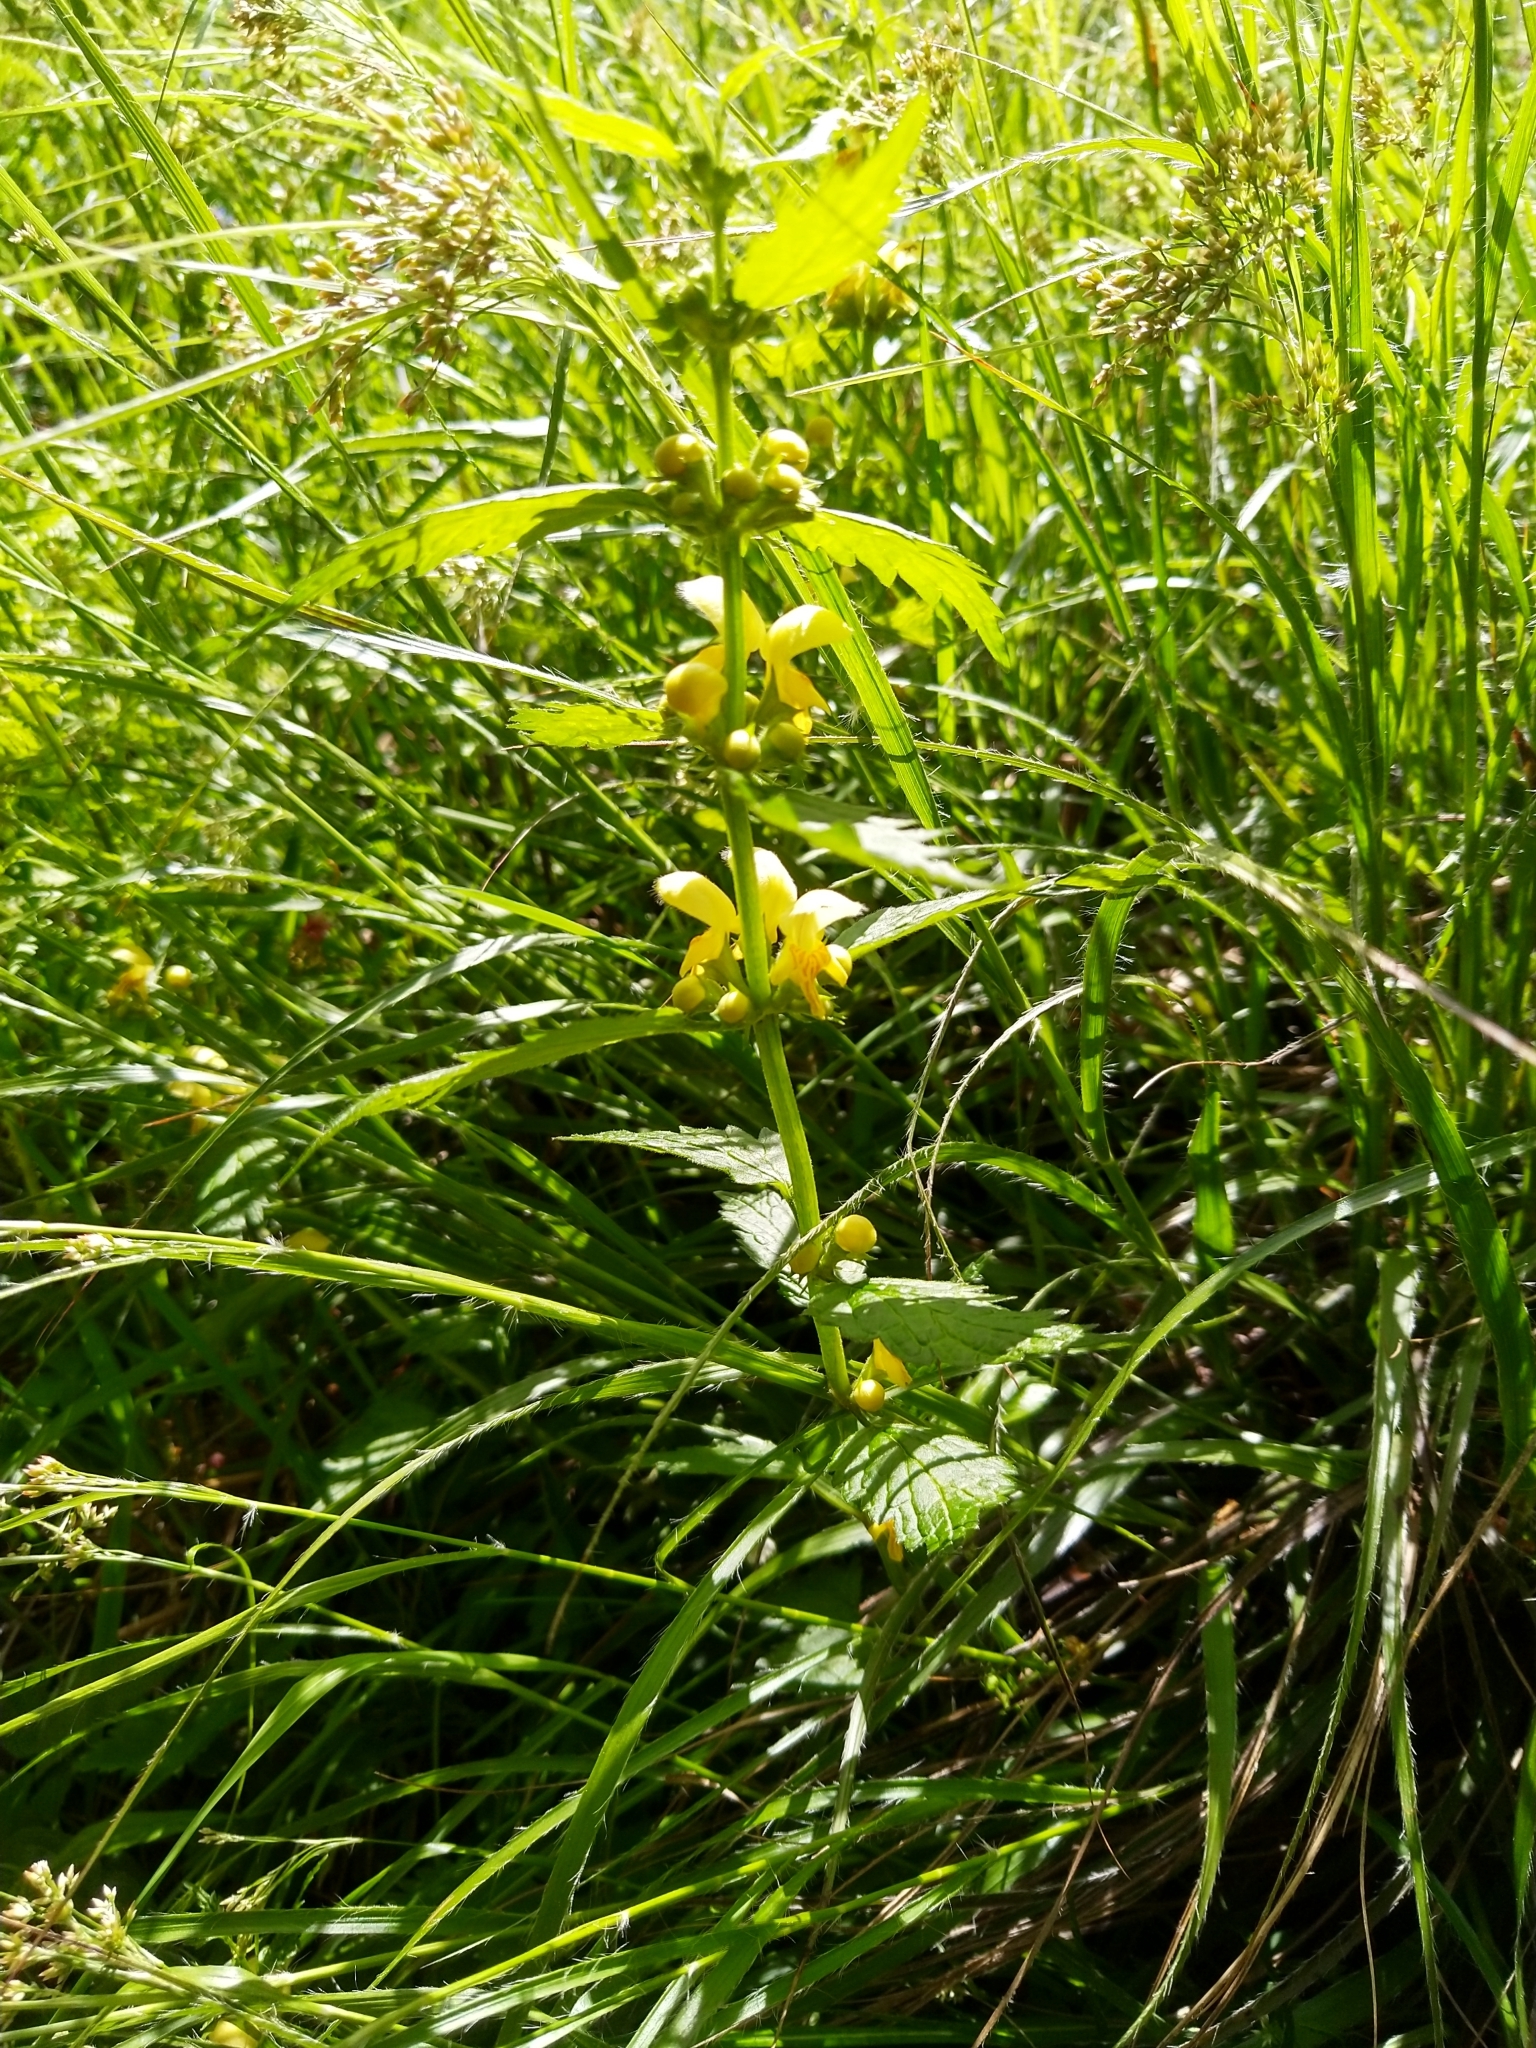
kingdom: Plantae
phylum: Tracheophyta
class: Magnoliopsida
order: Lamiales
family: Lamiaceae
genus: Lamium
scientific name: Lamium galeobdolon
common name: Yellow archangel
